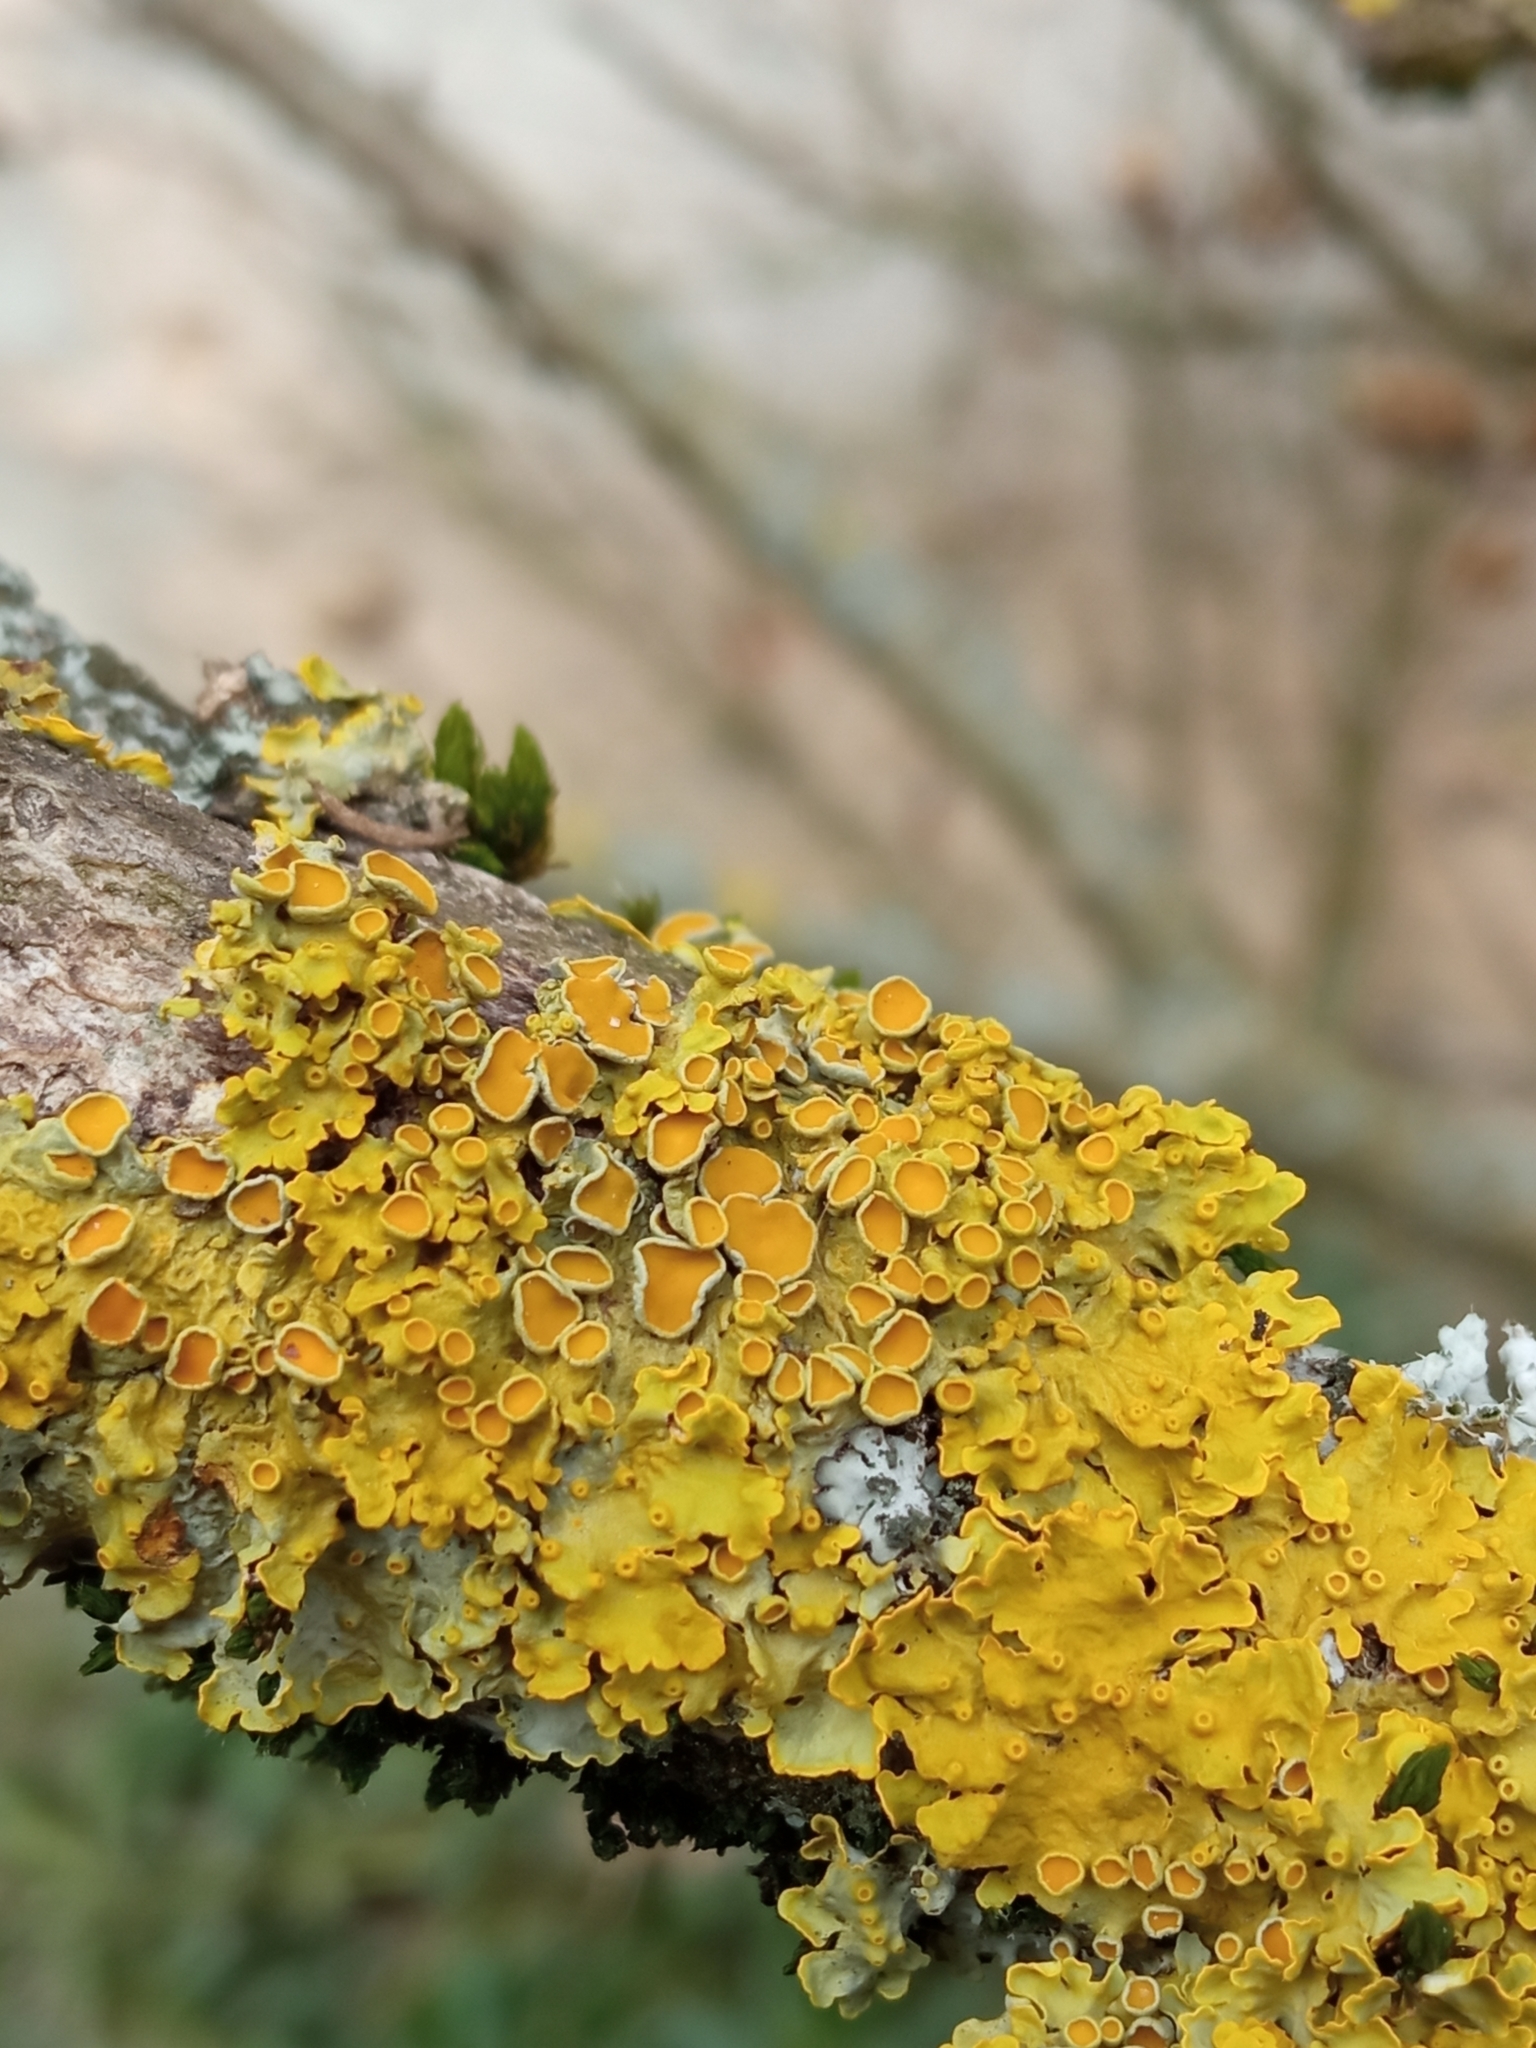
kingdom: Fungi
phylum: Ascomycota
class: Lecanoromycetes
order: Teloschistales
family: Teloschistaceae
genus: Xanthoria
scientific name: Xanthoria parietina
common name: Common orange lichen
